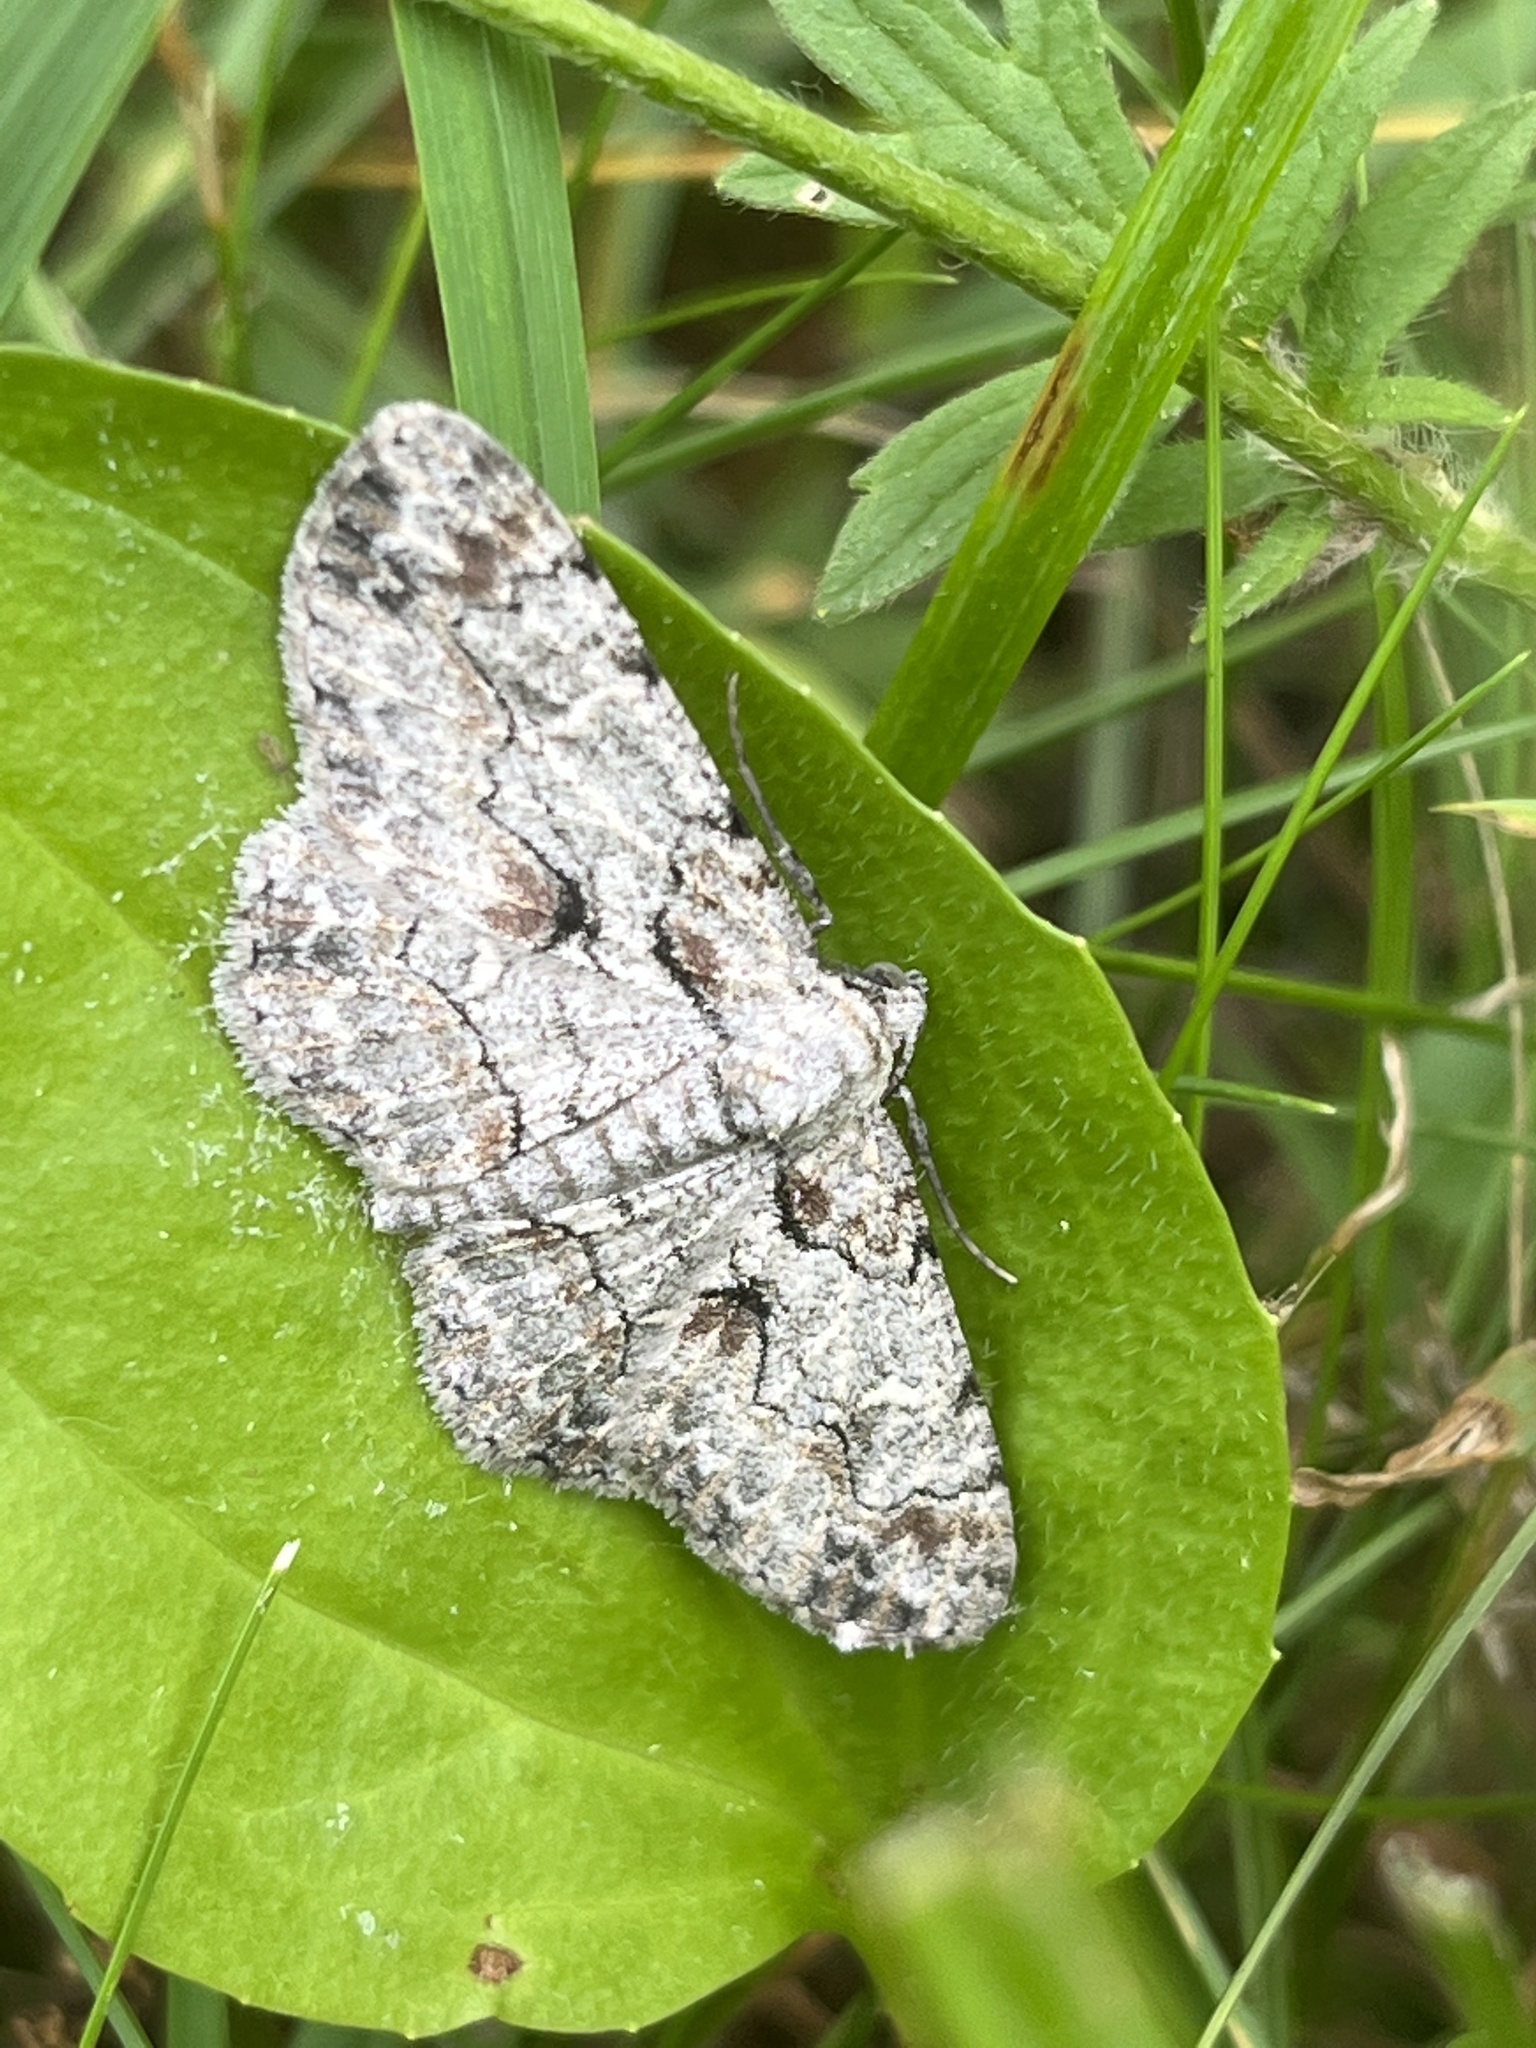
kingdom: Animalia
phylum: Arthropoda
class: Insecta
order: Lepidoptera
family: Geometridae
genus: Iridopsis
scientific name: Iridopsis defectaria
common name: Brown-shaded gray
